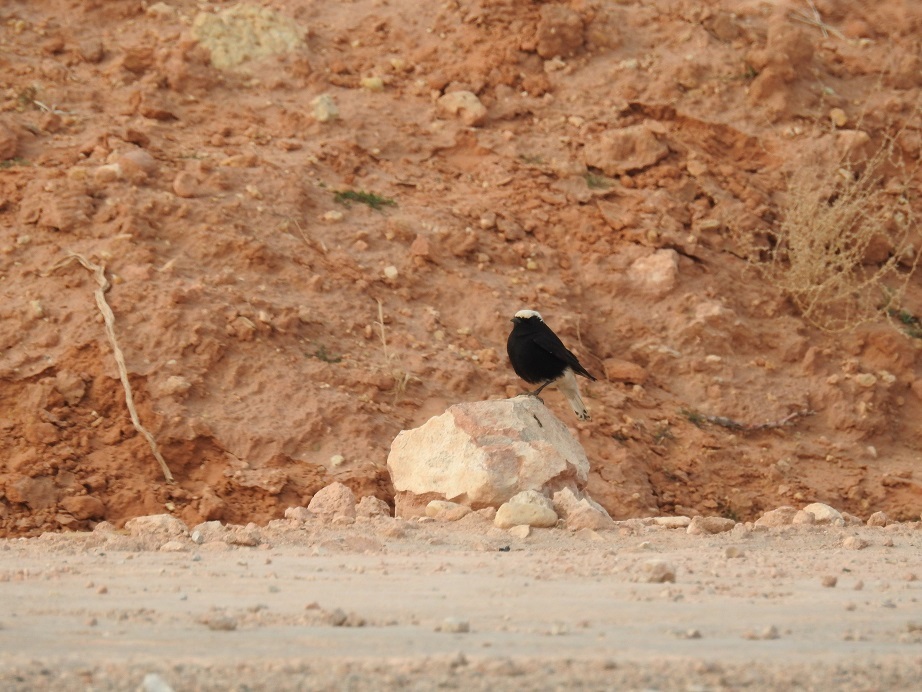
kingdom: Animalia
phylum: Chordata
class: Aves
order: Passeriformes
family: Muscicapidae
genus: Oenanthe
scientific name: Oenanthe leucopyga
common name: White-crowned wheatear
